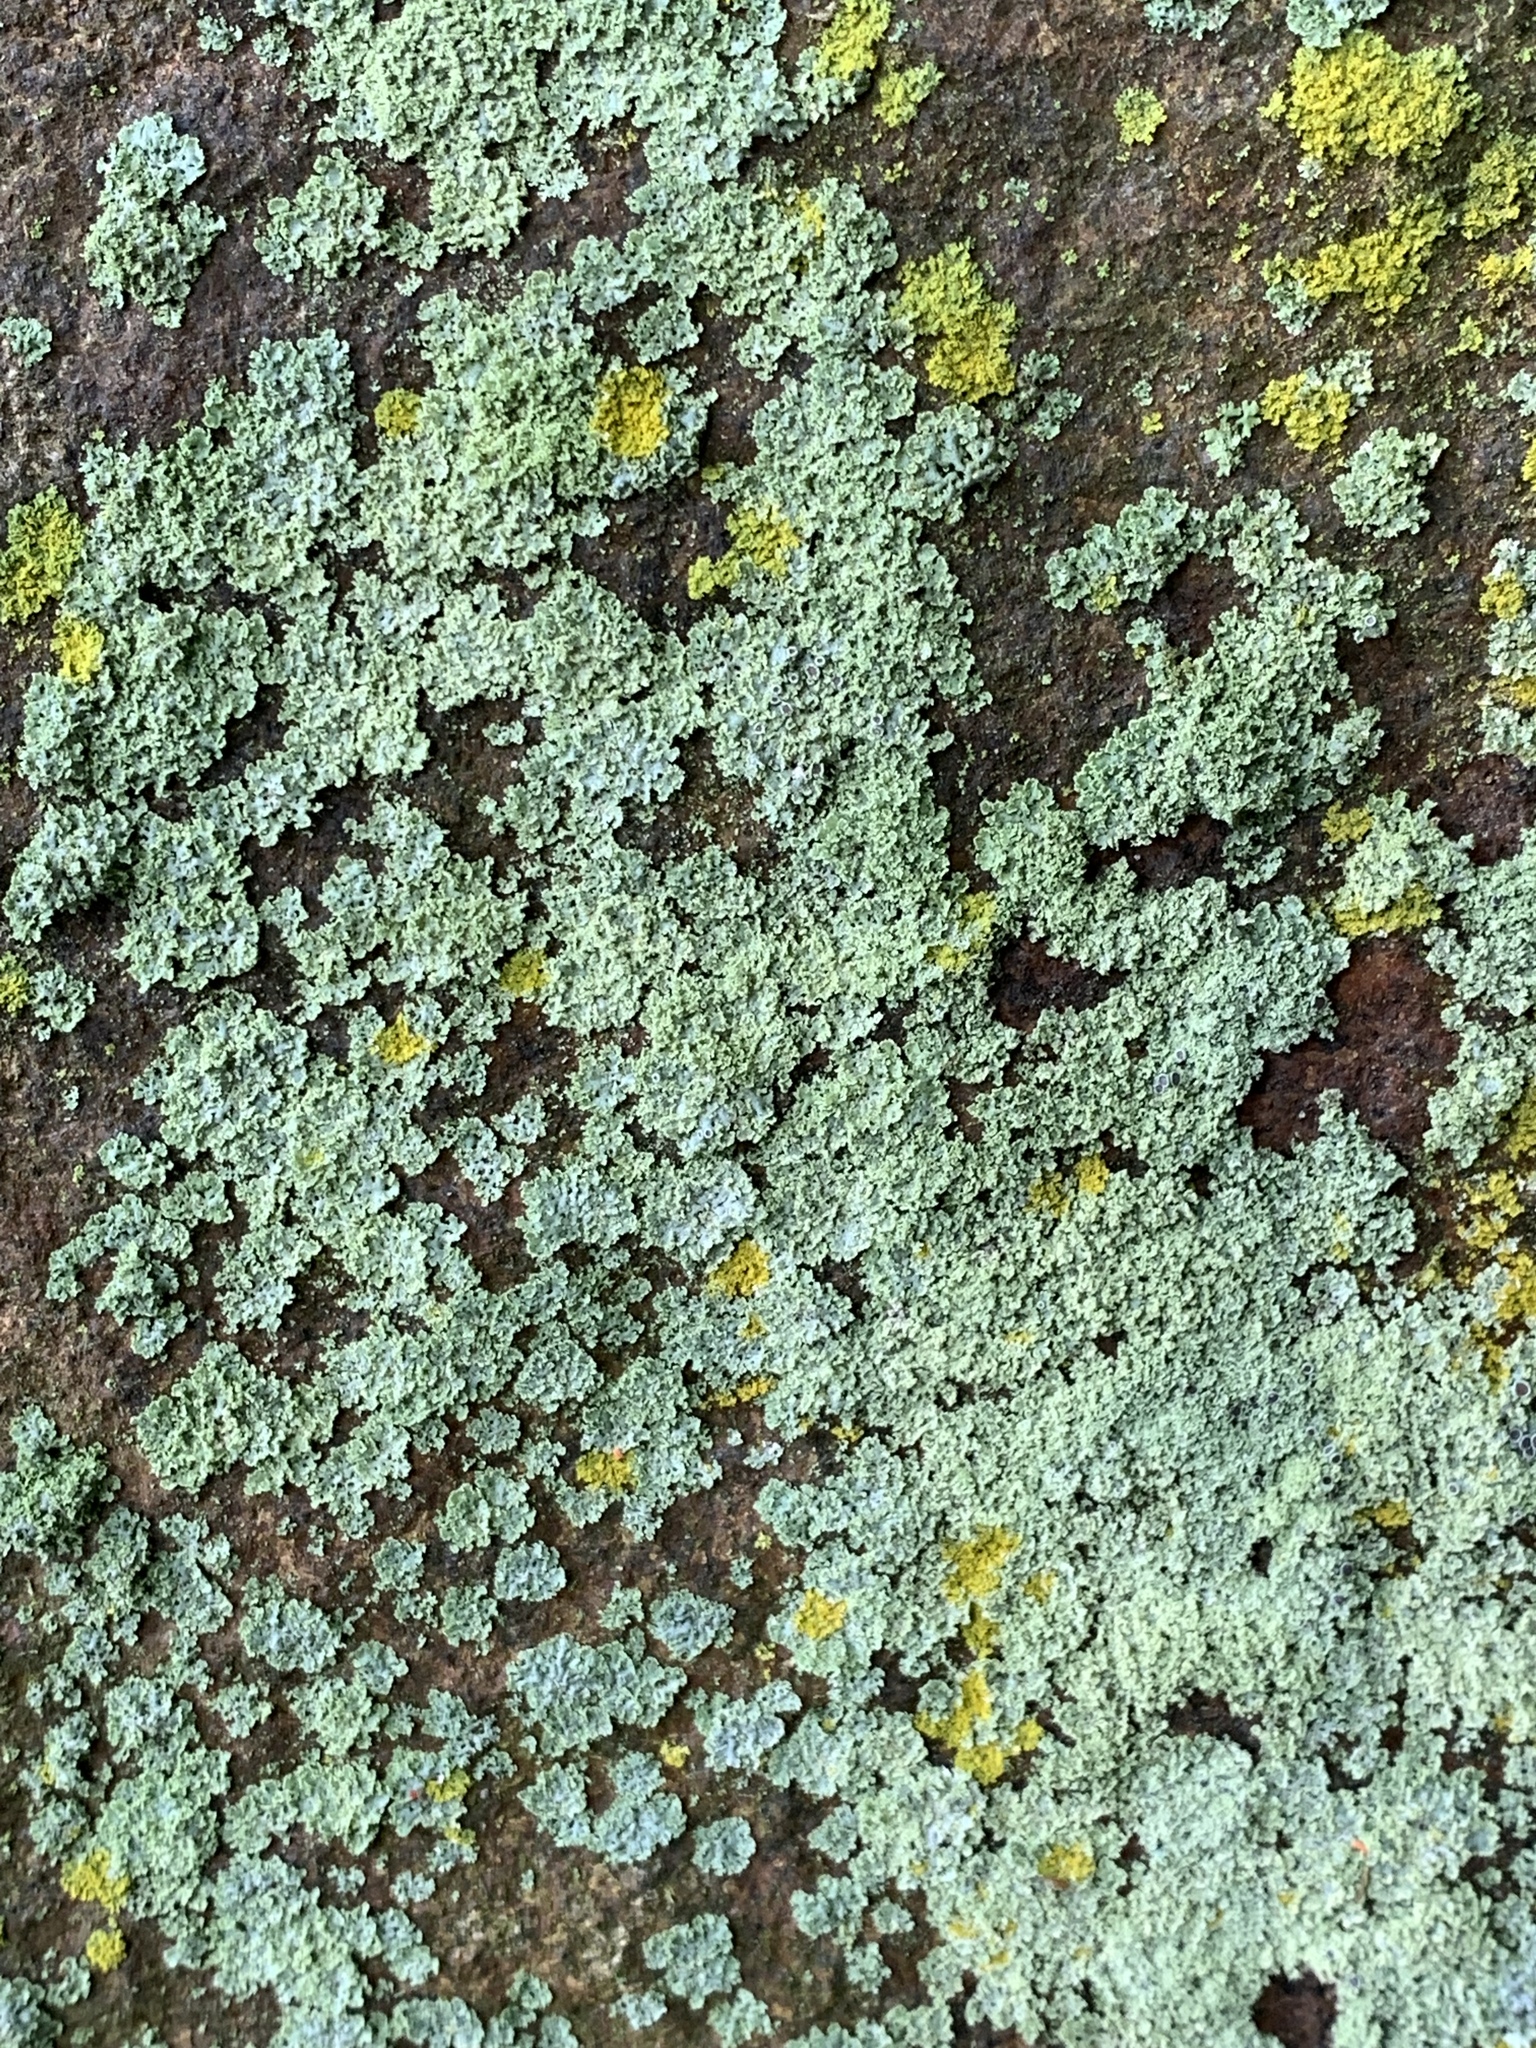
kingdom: Fungi
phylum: Ascomycota
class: Lecanoromycetes
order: Caliciales
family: Physciaceae
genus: Physcia
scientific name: Physcia millegrana
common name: Rosette lichen
